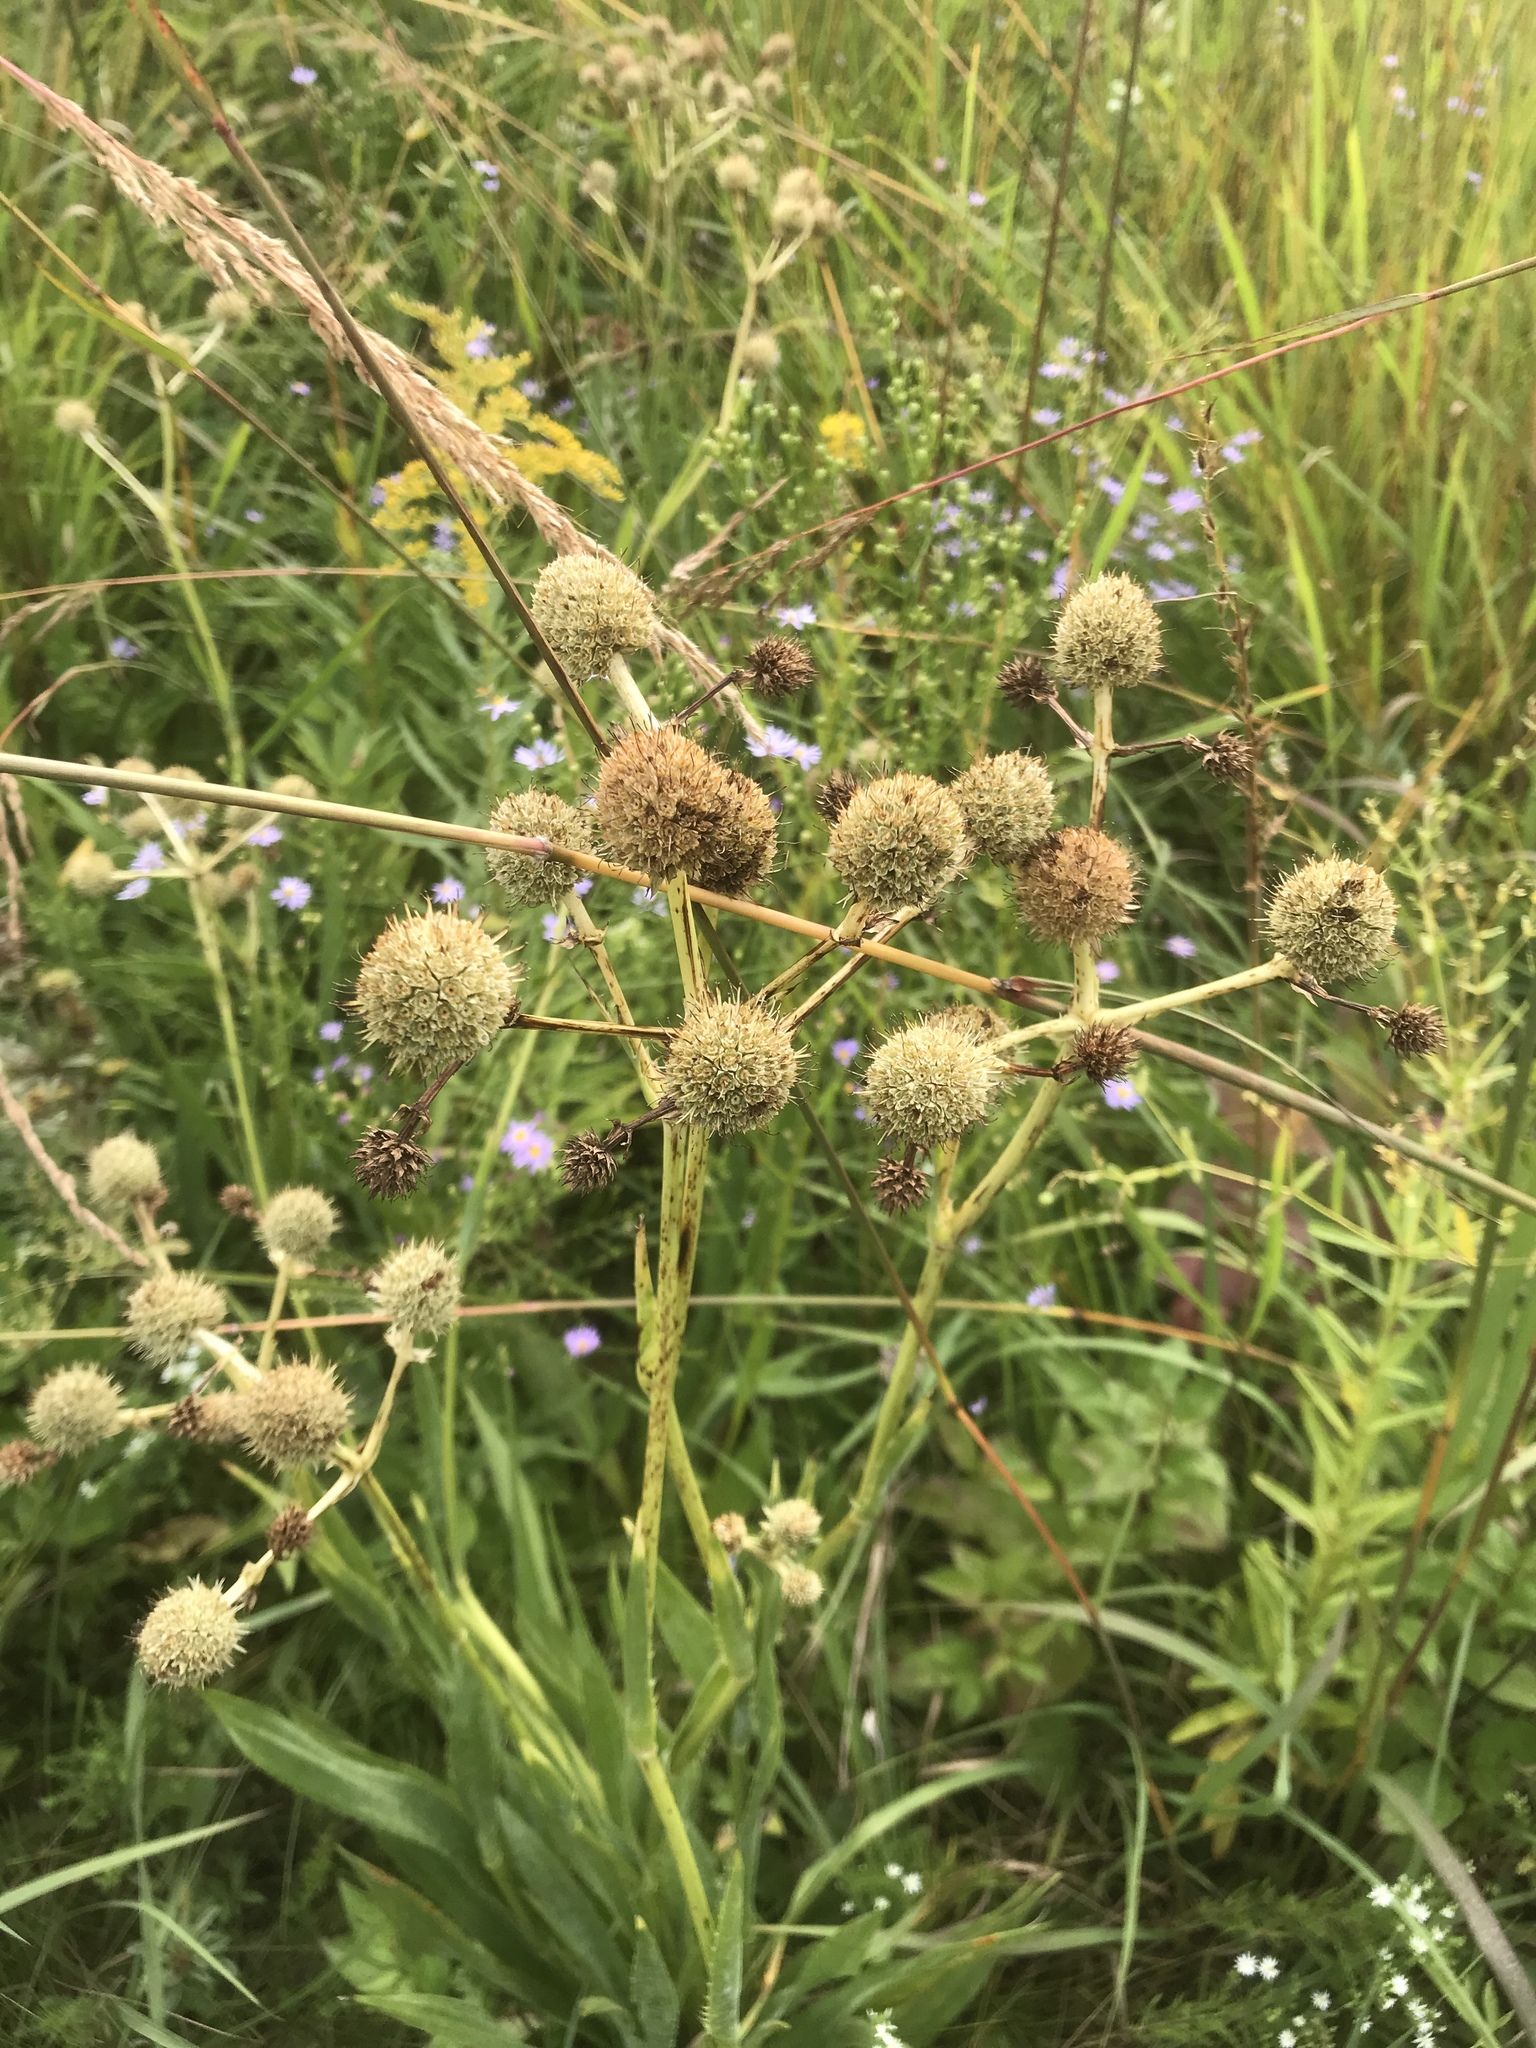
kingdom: Plantae
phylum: Tracheophyta
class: Magnoliopsida
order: Apiales
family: Apiaceae
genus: Eryngium
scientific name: Eryngium yuccifolium
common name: Button eryngo
